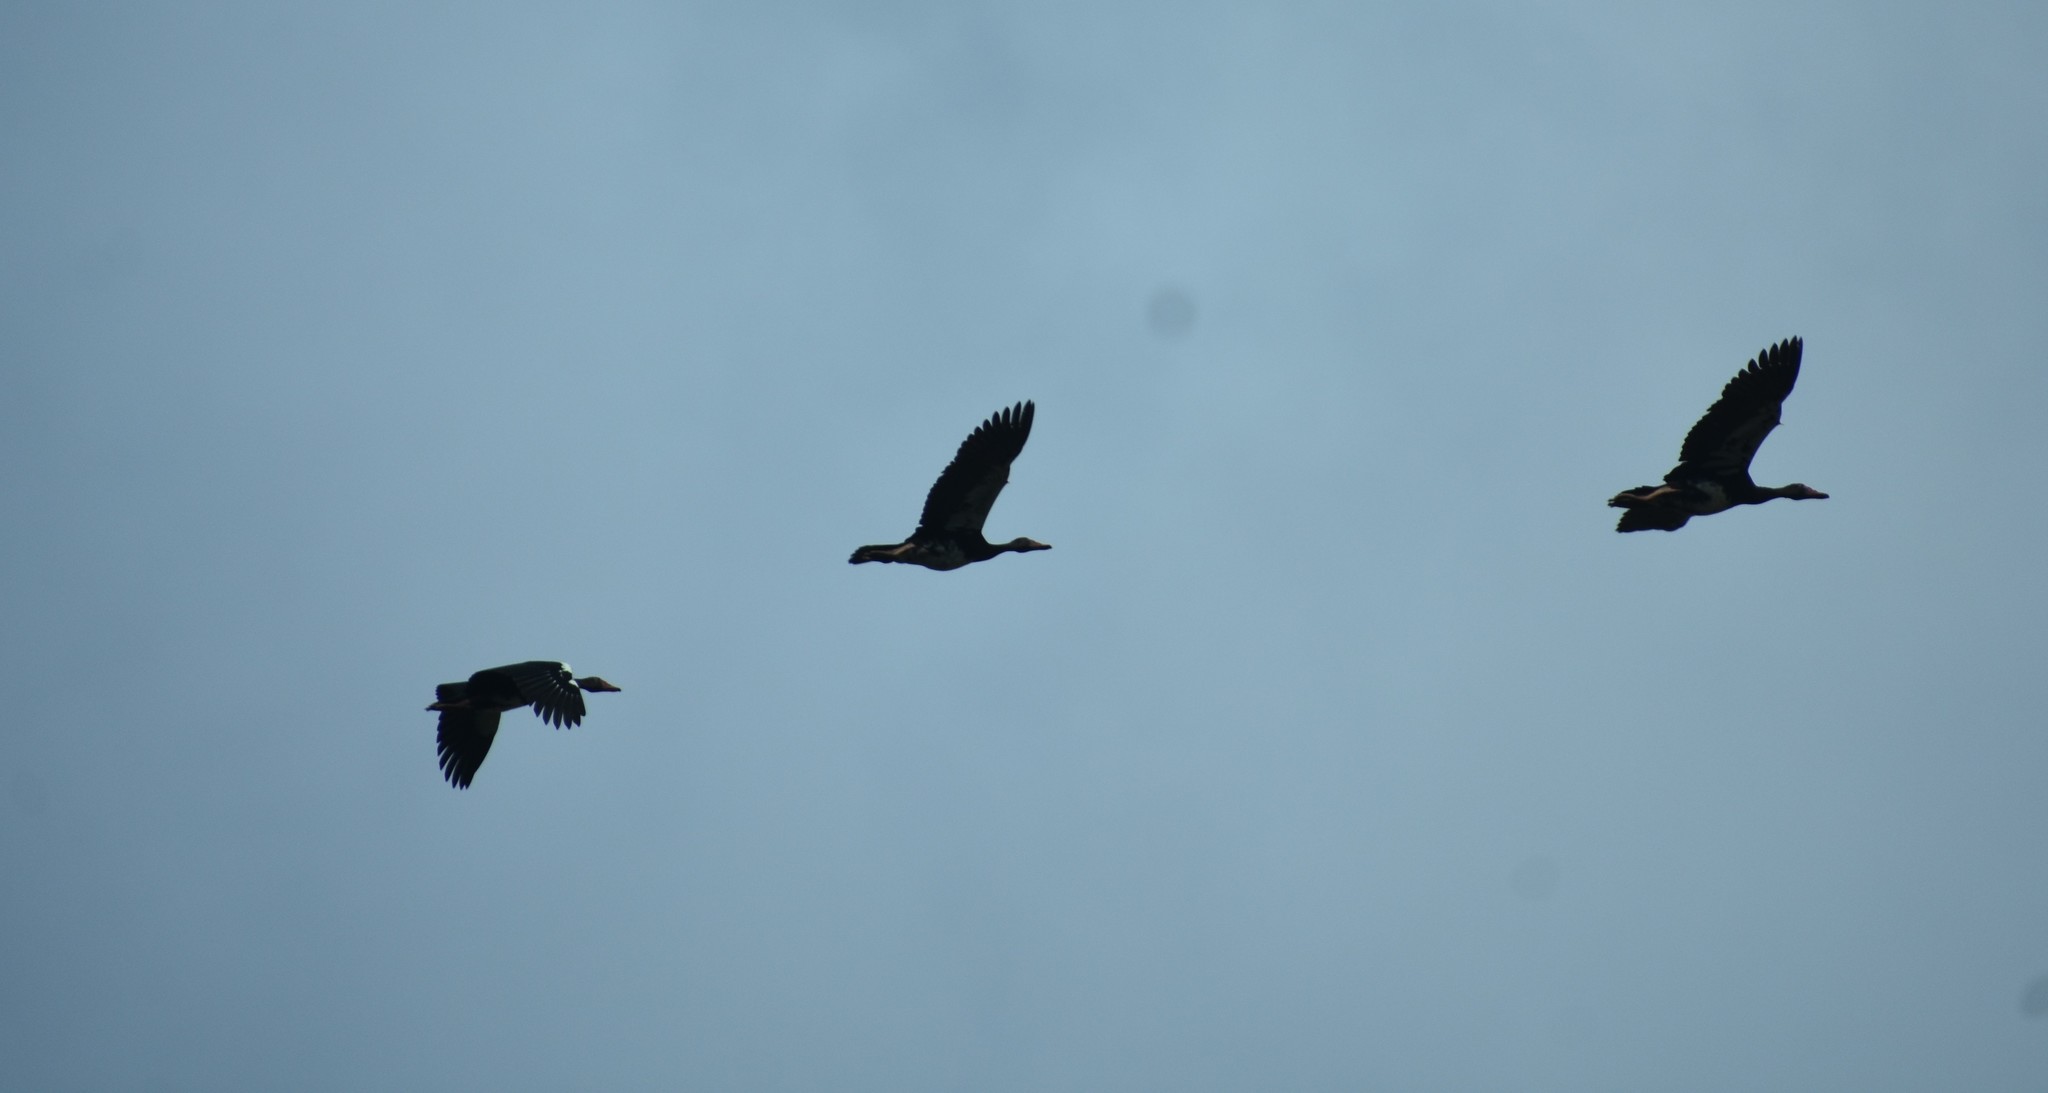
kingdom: Animalia
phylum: Chordata
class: Aves
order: Anseriformes
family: Anatidae
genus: Plectropterus
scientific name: Plectropterus gambensis
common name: Spur-winged goose
